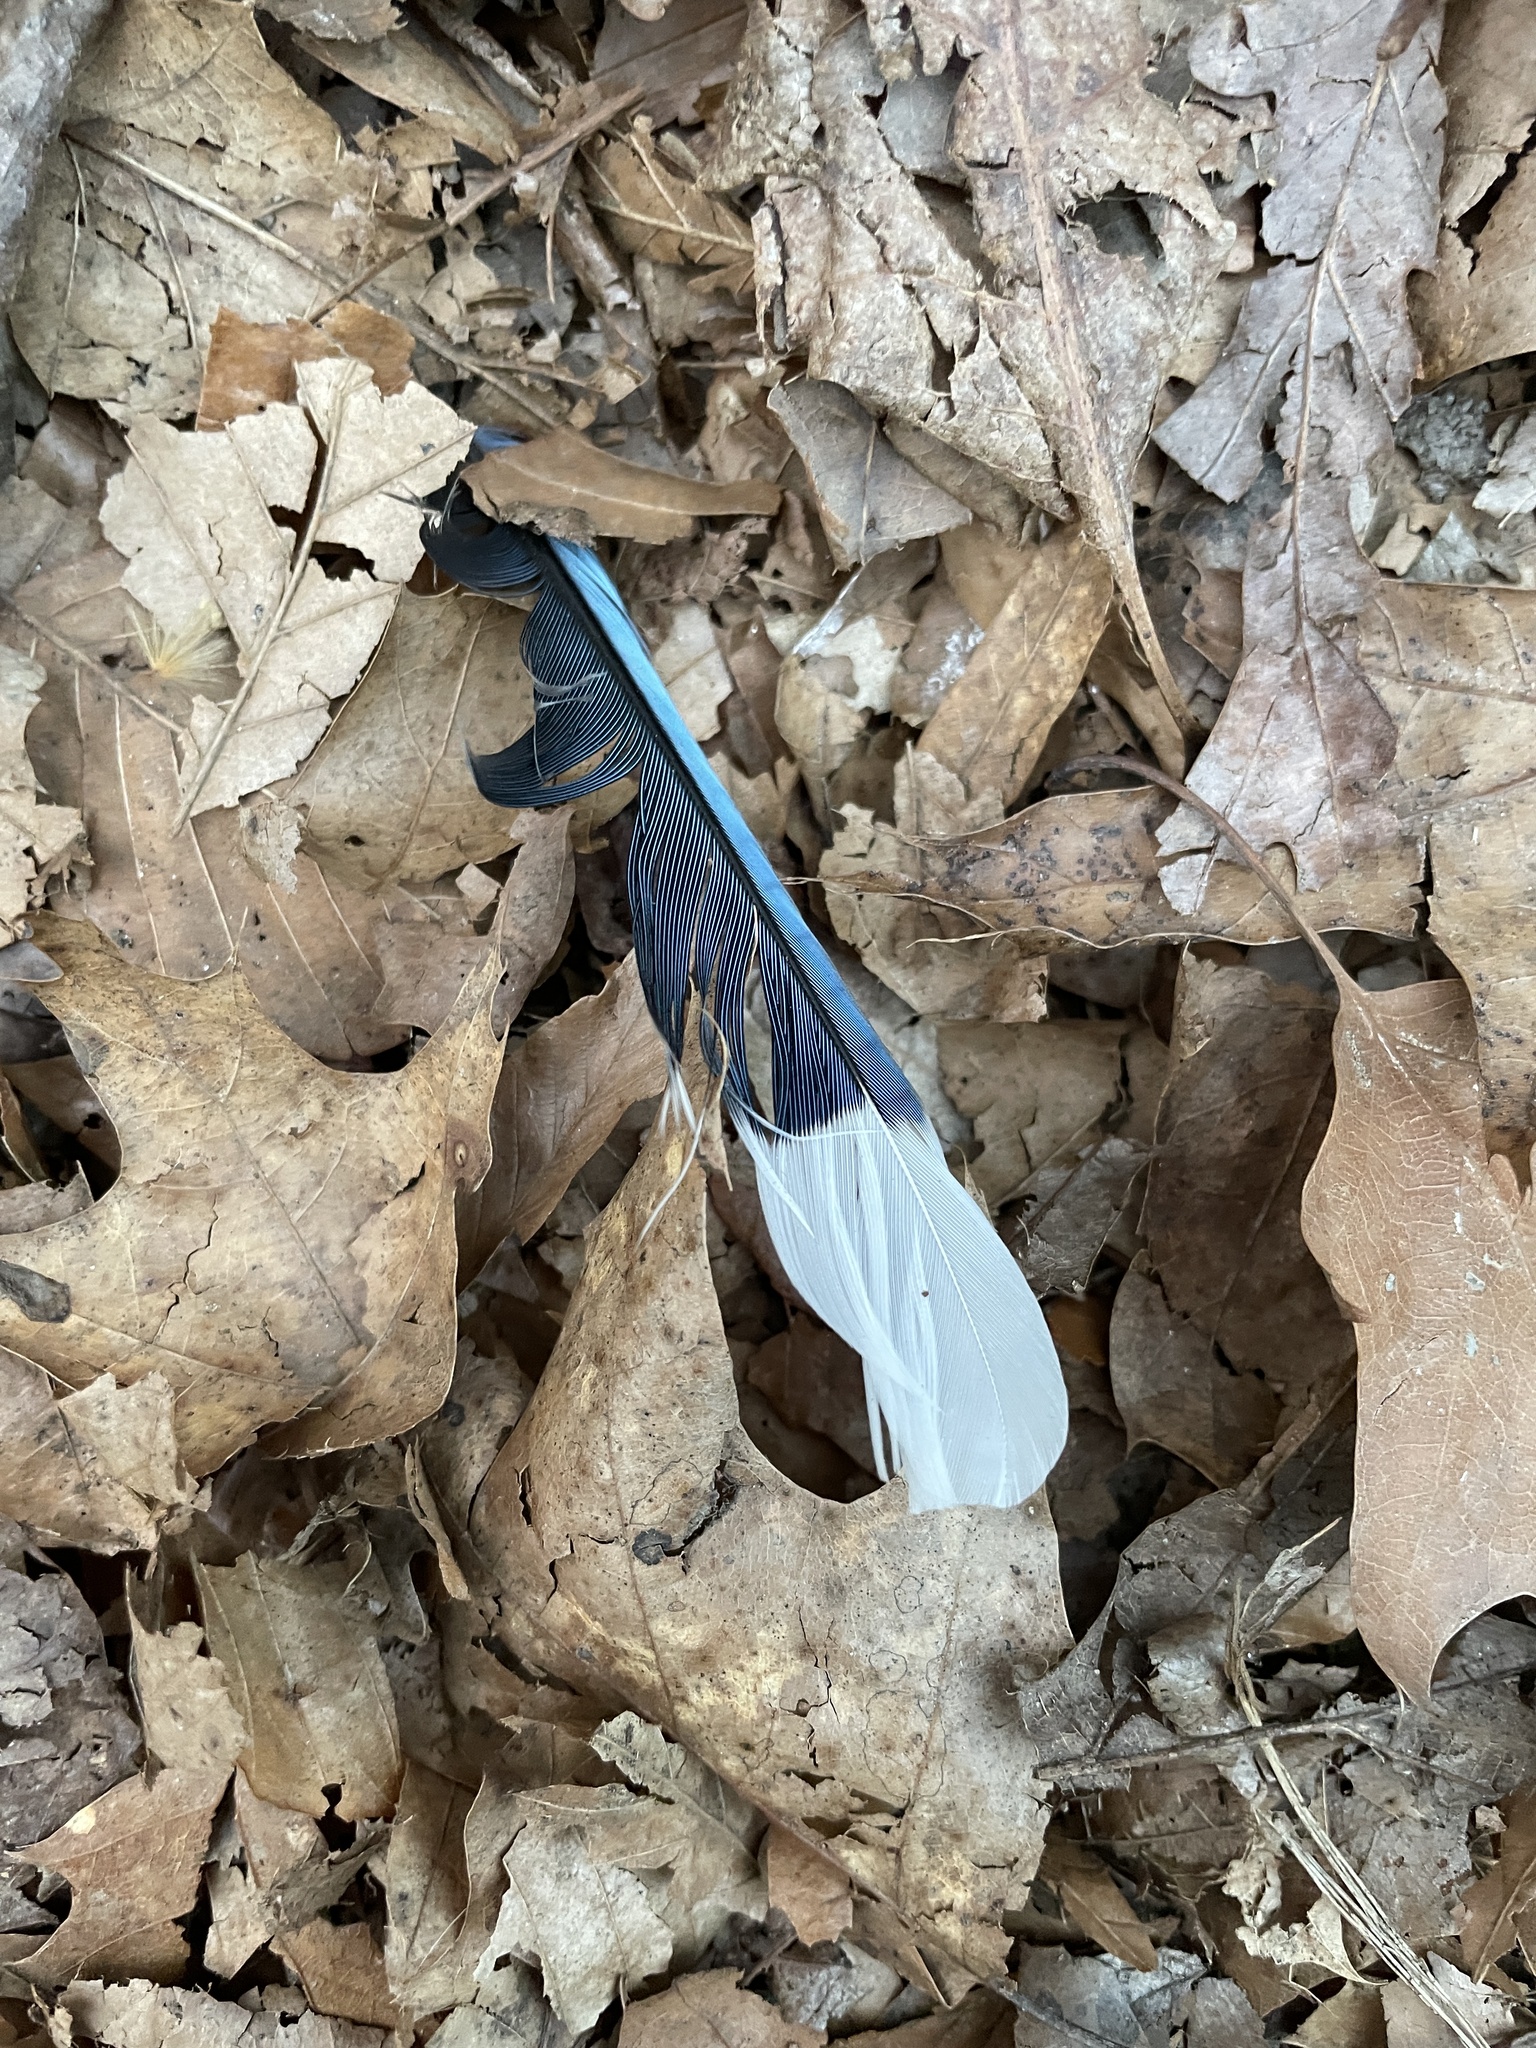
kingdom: Animalia
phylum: Chordata
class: Aves
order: Passeriformes
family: Corvidae
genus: Cyanocitta
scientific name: Cyanocitta cristata
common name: Blue jay
